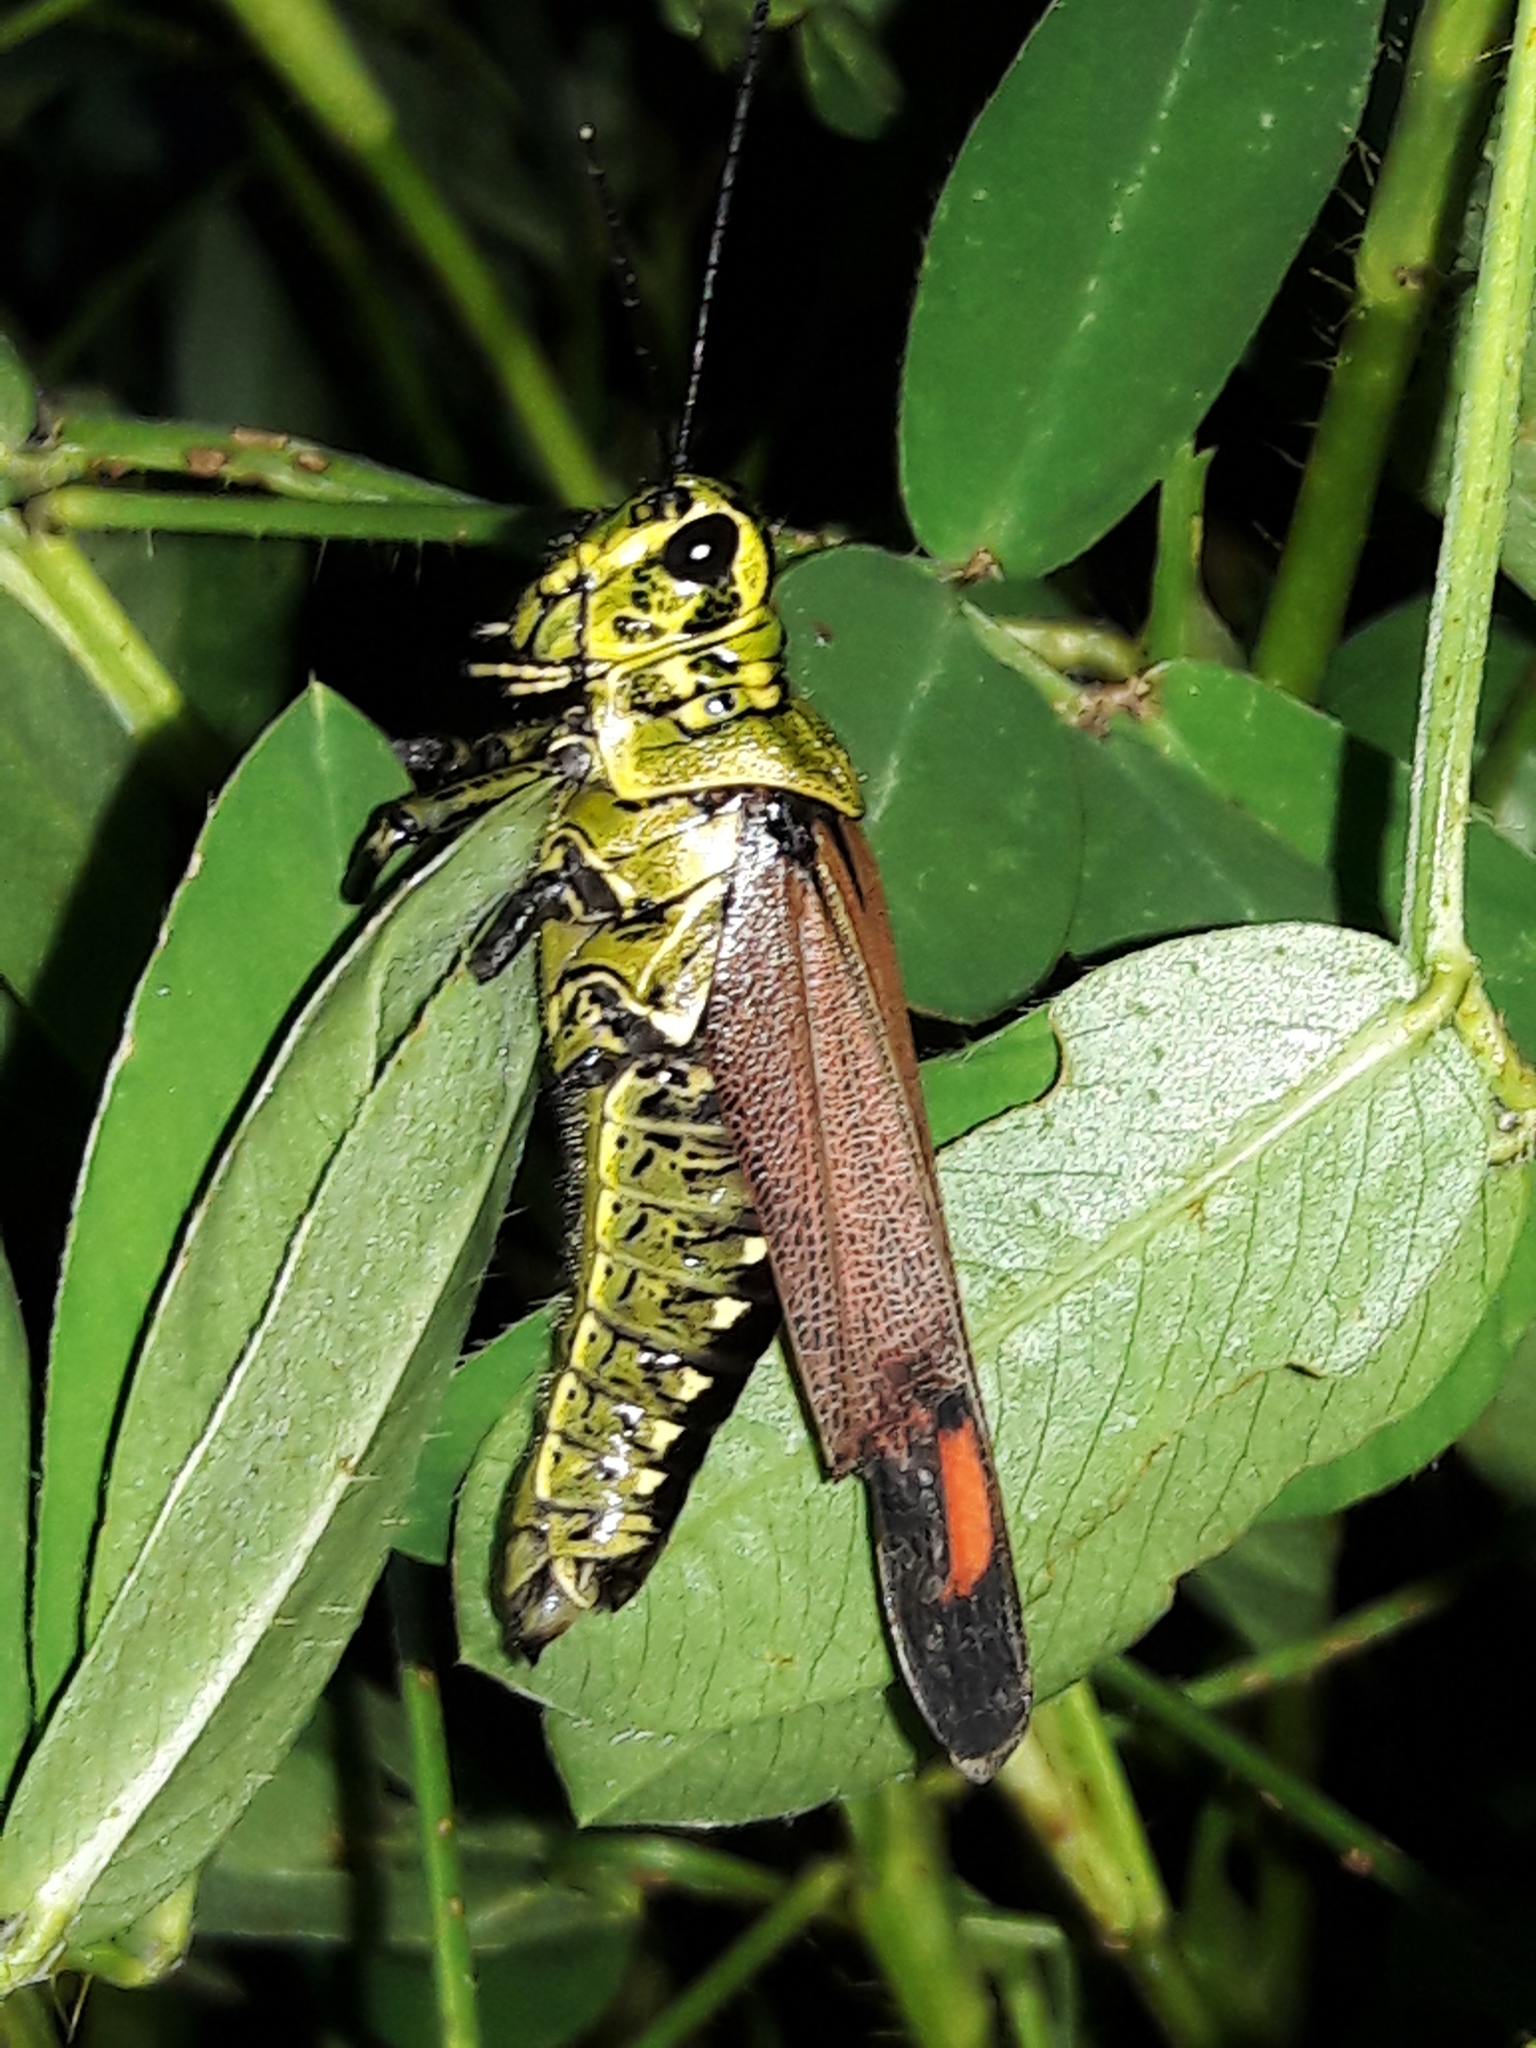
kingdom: Animalia
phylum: Arthropoda
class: Insecta
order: Orthoptera
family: Romaleidae
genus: Chromacris
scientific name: Chromacris speciosa
